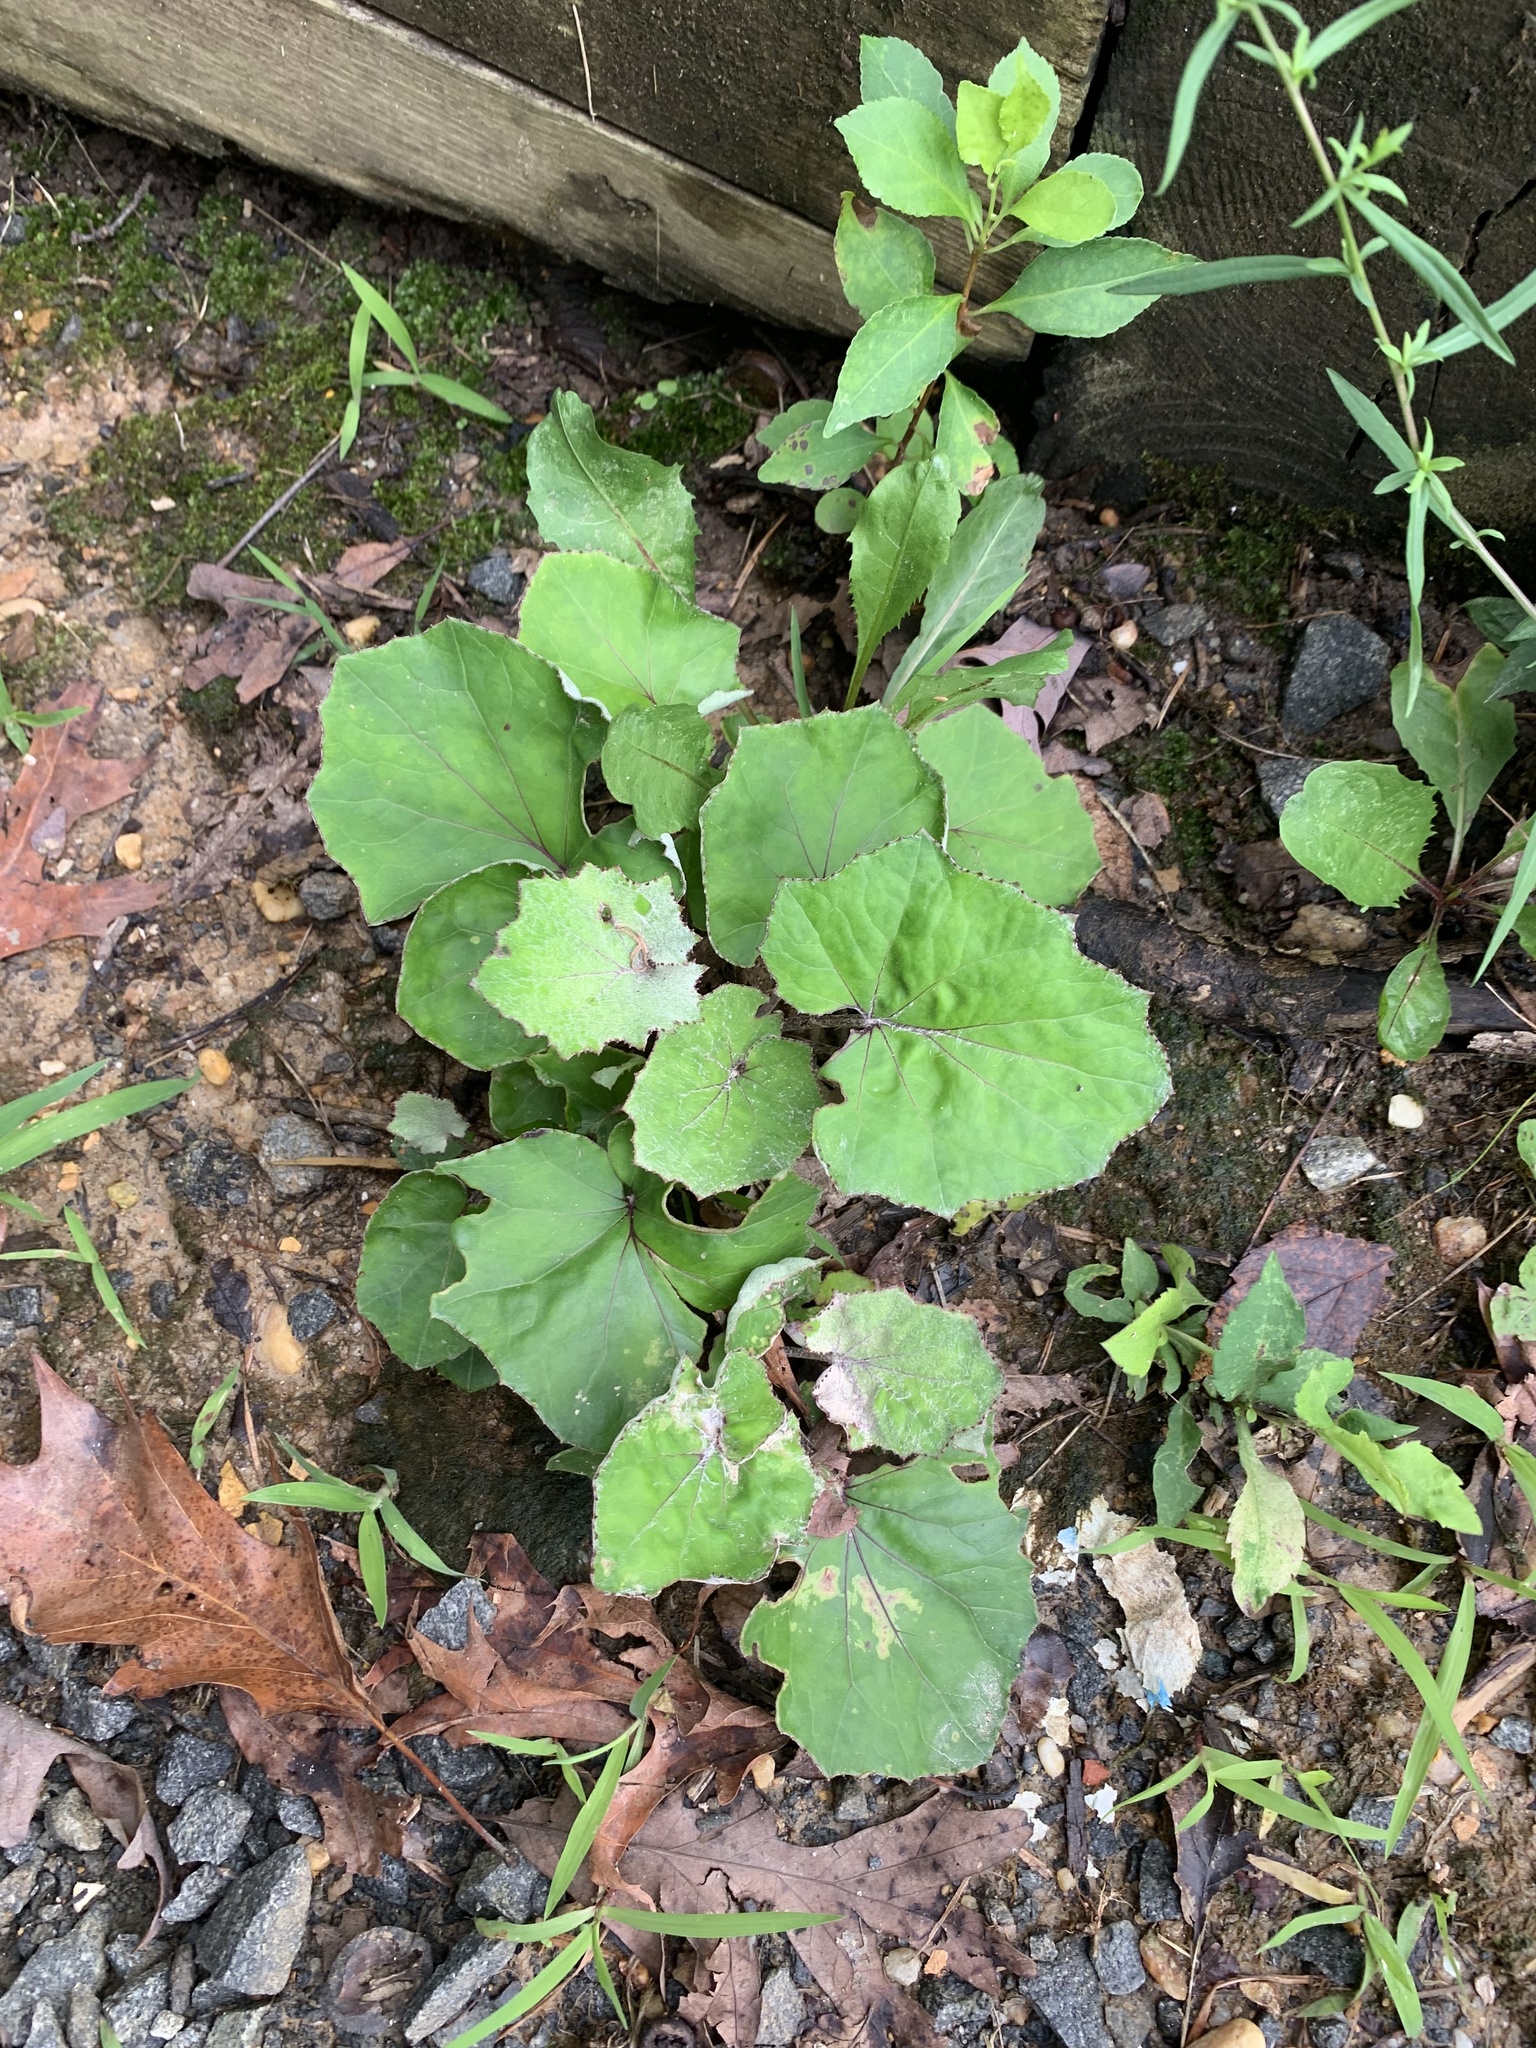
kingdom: Plantae
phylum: Tracheophyta
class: Magnoliopsida
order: Asterales
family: Asteraceae
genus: Tussilago
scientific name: Tussilago farfara
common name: Coltsfoot
